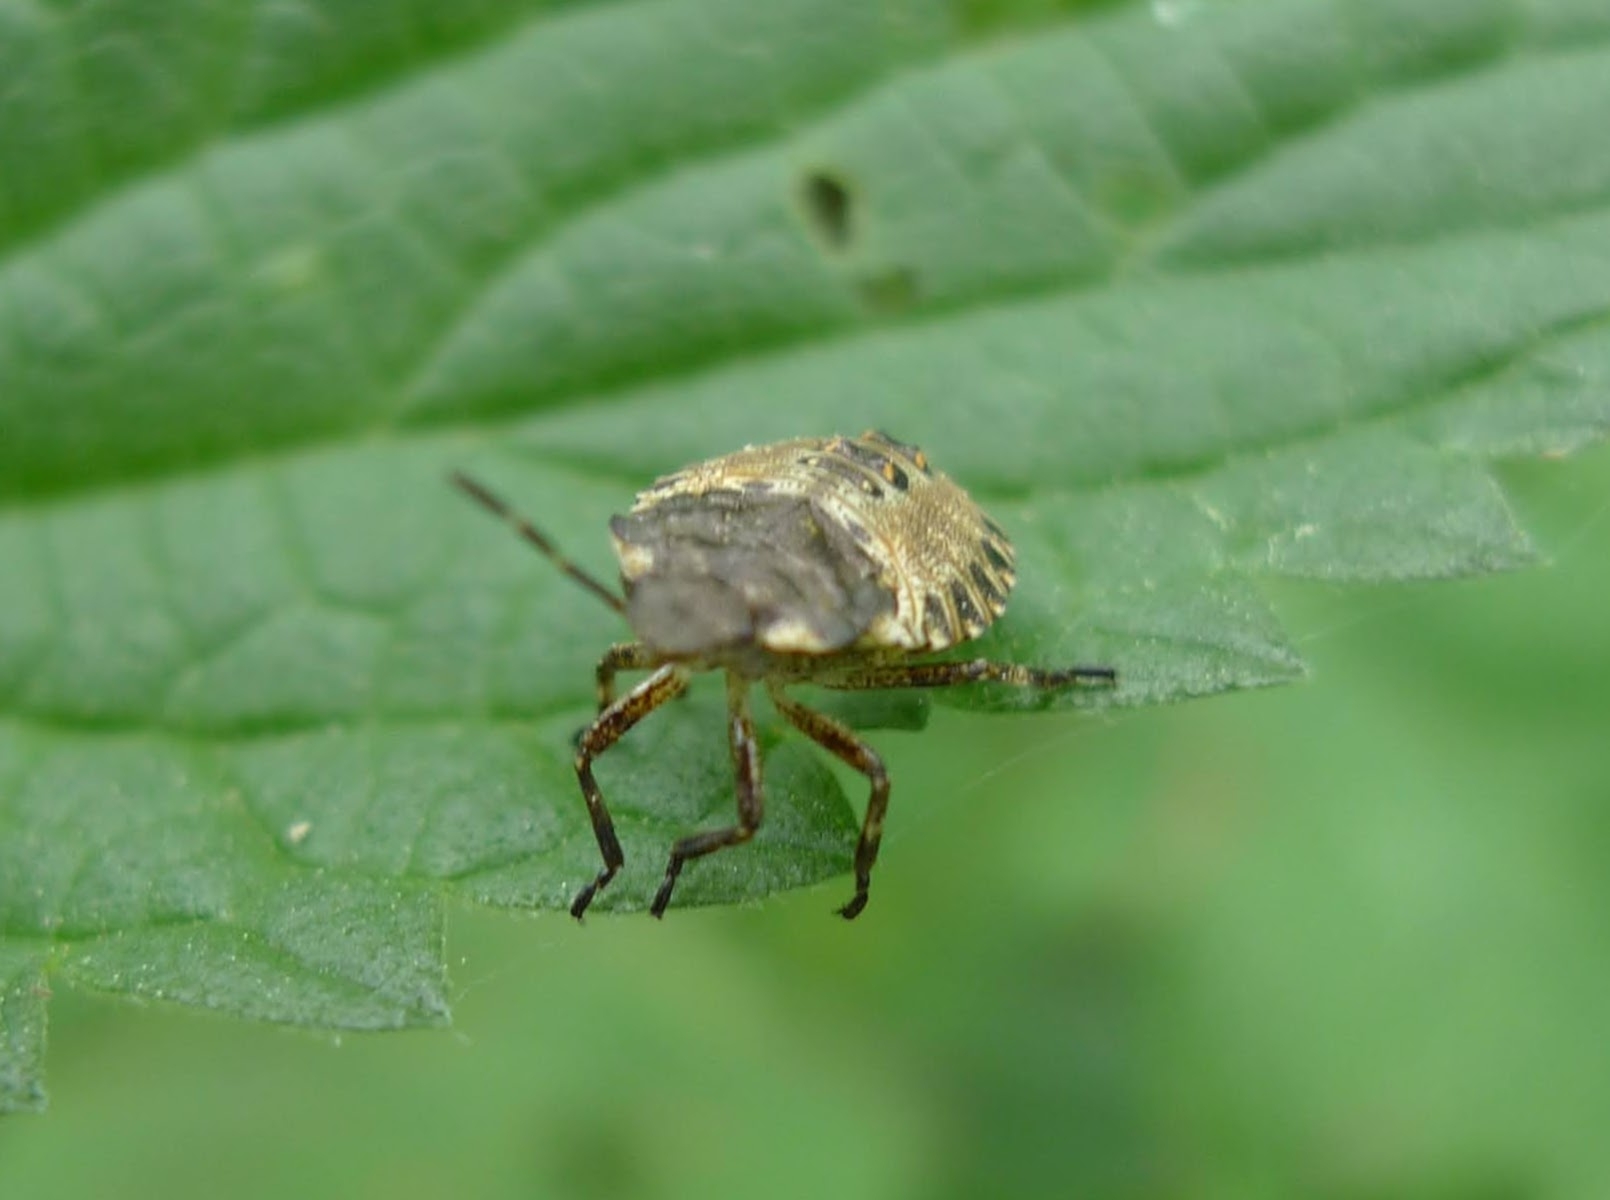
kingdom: Animalia
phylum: Arthropoda
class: Insecta
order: Hemiptera
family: Pentatomidae
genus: Pentatoma
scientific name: Pentatoma rufipes
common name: Forest bug
